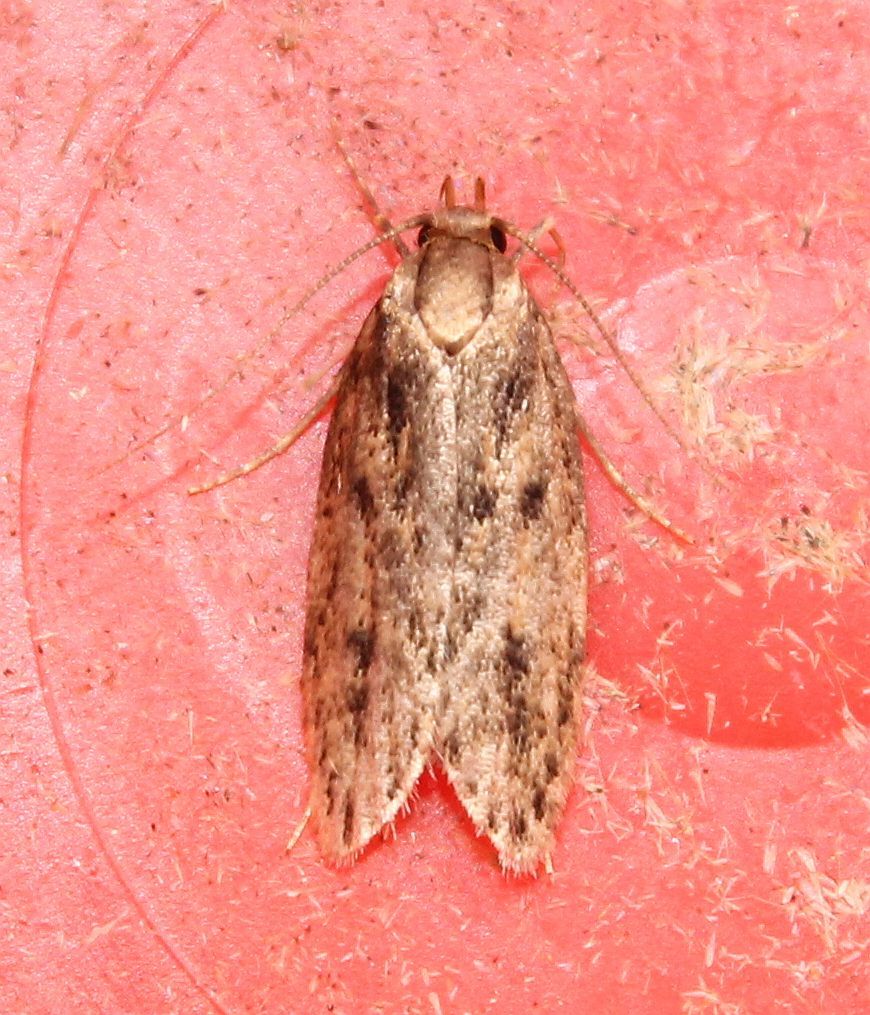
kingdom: Animalia
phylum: Arthropoda
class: Insecta
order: Lepidoptera
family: Oecophoridae
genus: Hofmannophila
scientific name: Hofmannophila pseudospretella
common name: Brown house moth
